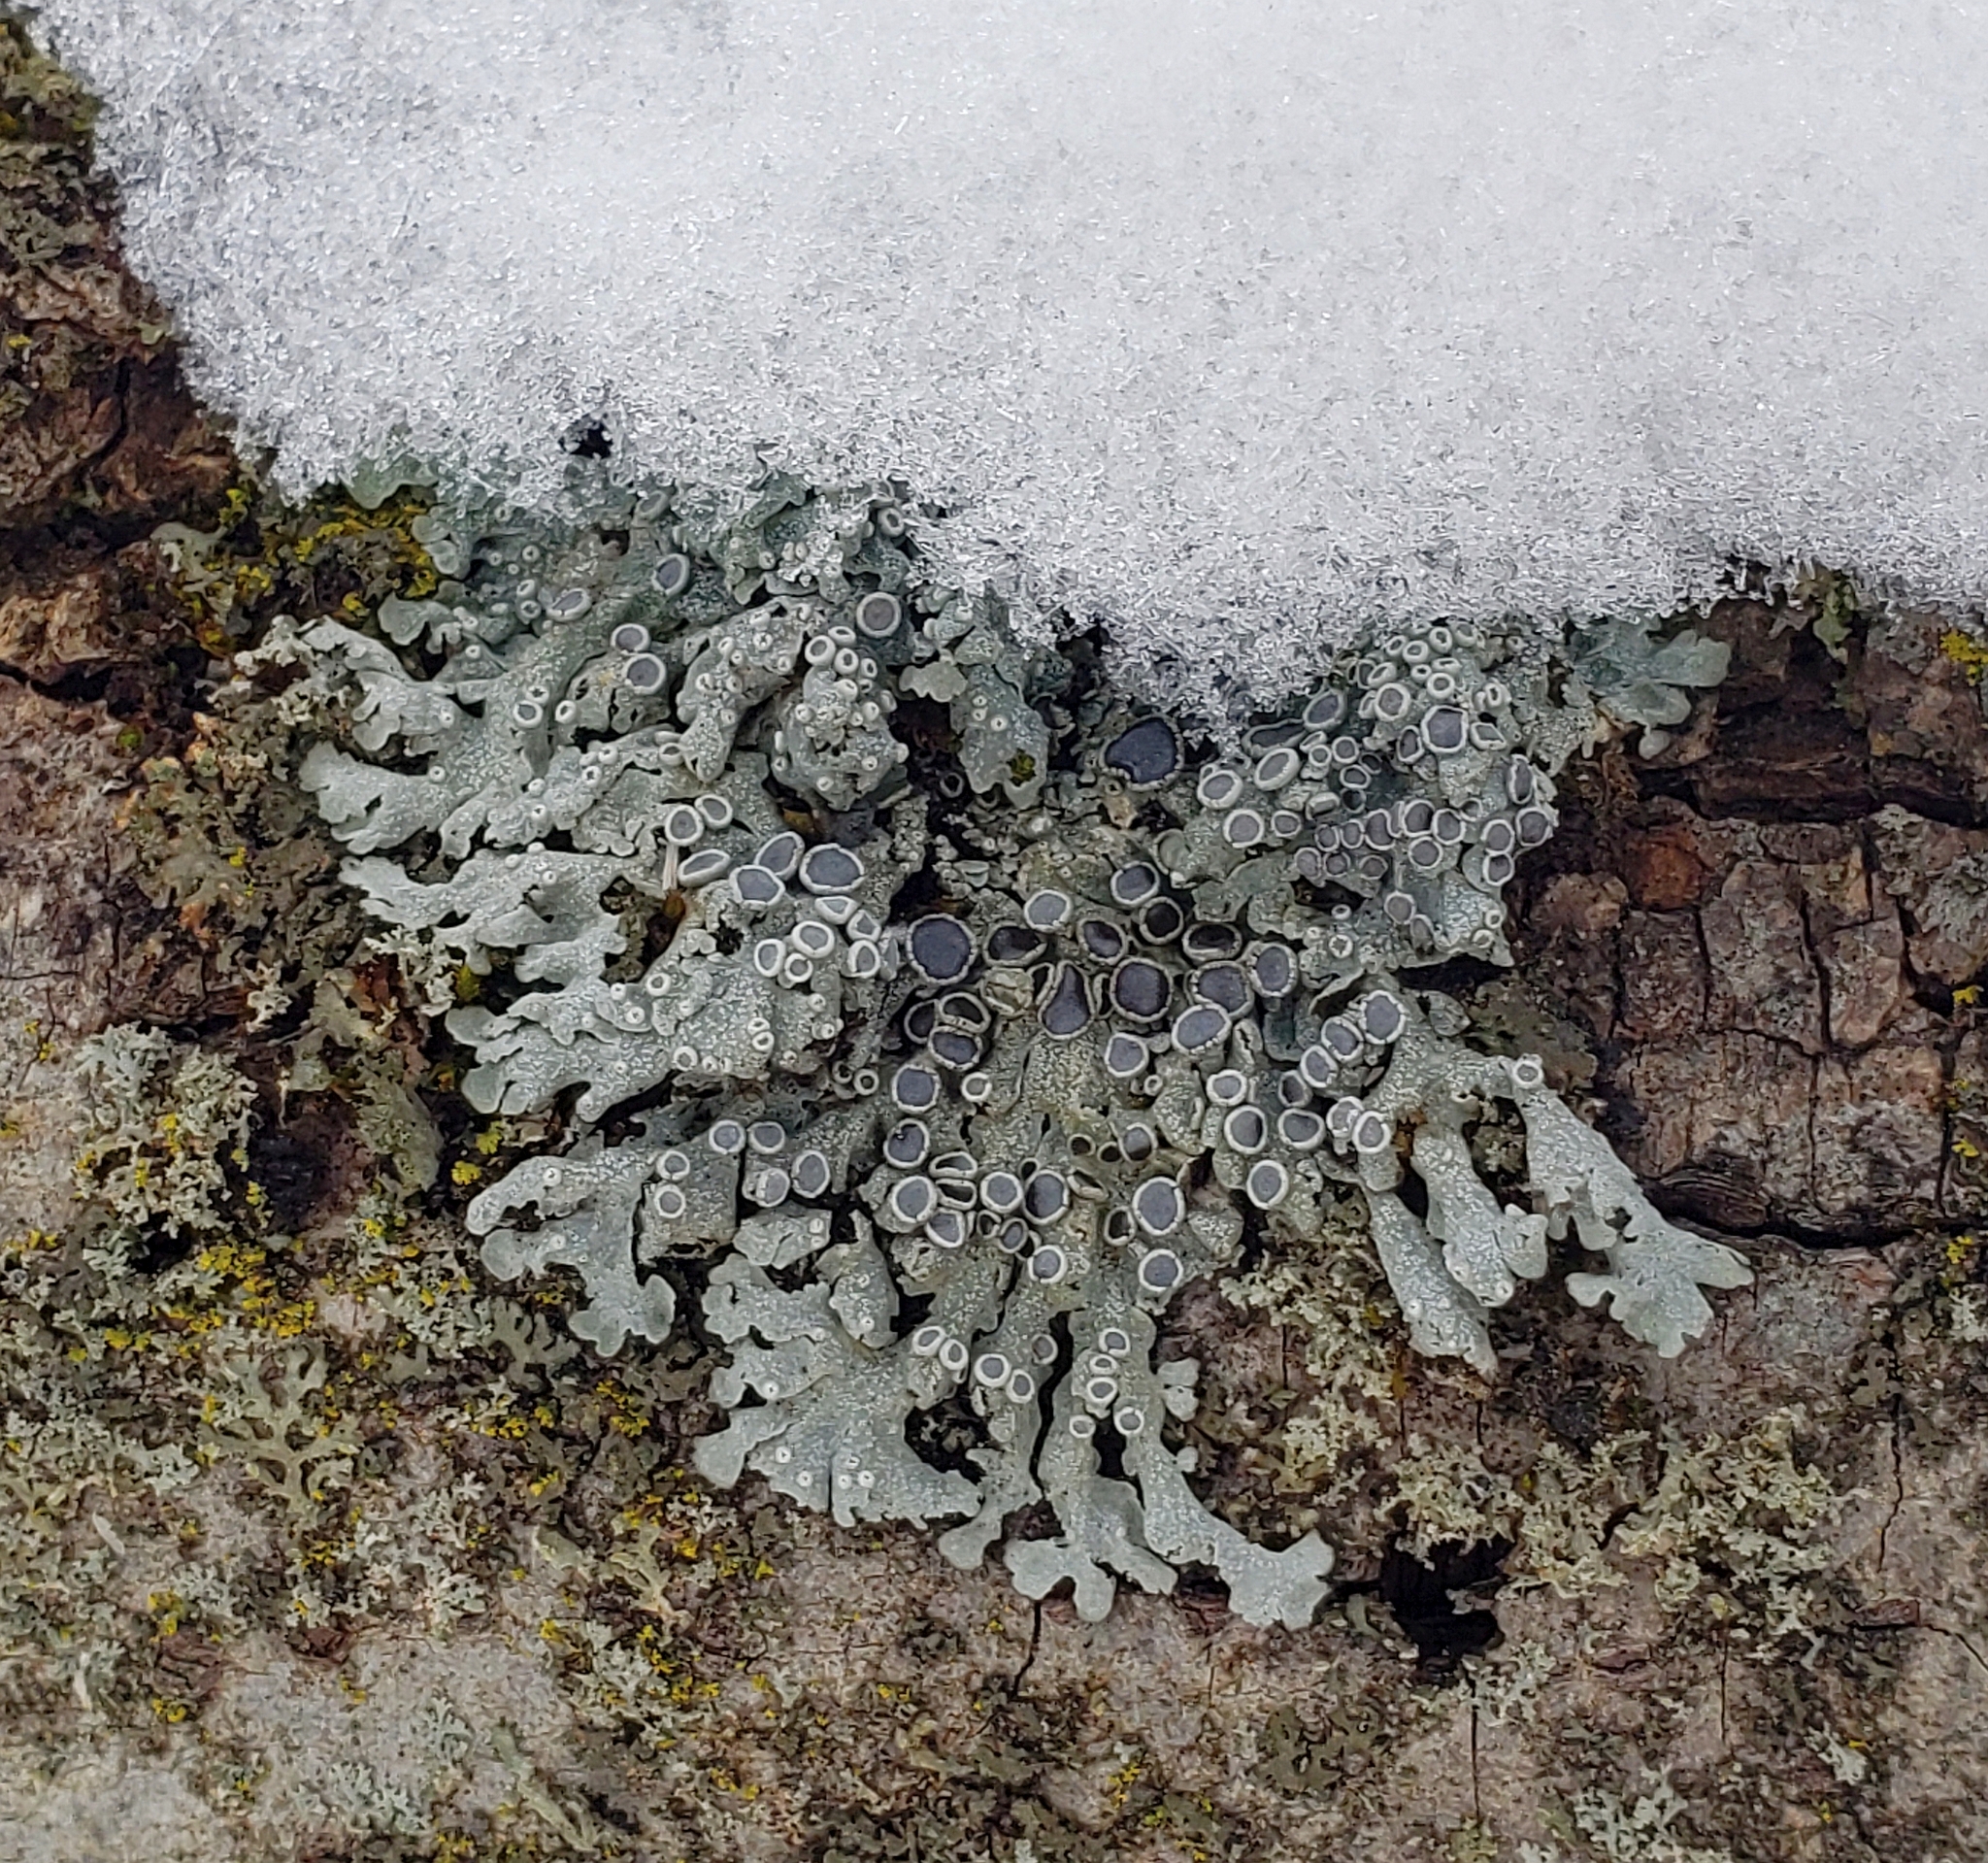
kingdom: Fungi
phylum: Ascomycota
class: Lecanoromycetes
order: Caliciales
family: Physciaceae
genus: Physcia
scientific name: Physcia aipolia
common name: Hoary rosette lichen
